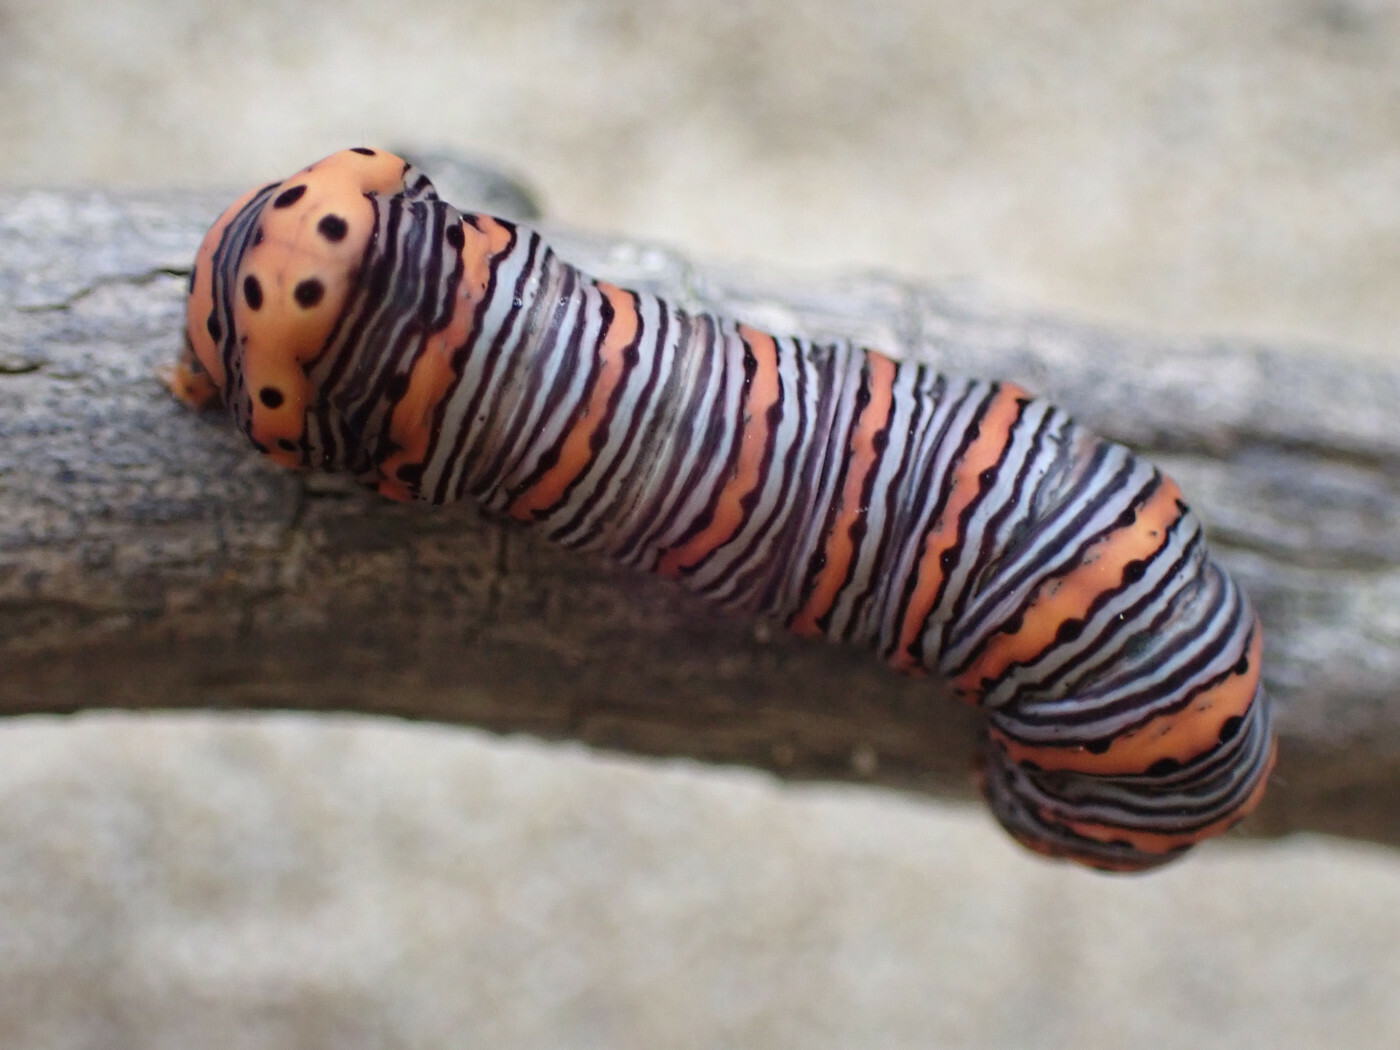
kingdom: Animalia
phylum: Arthropoda
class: Insecta
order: Lepidoptera
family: Noctuidae
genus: Eudryas
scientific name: Eudryas grata
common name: Beautiful wood-nymph
